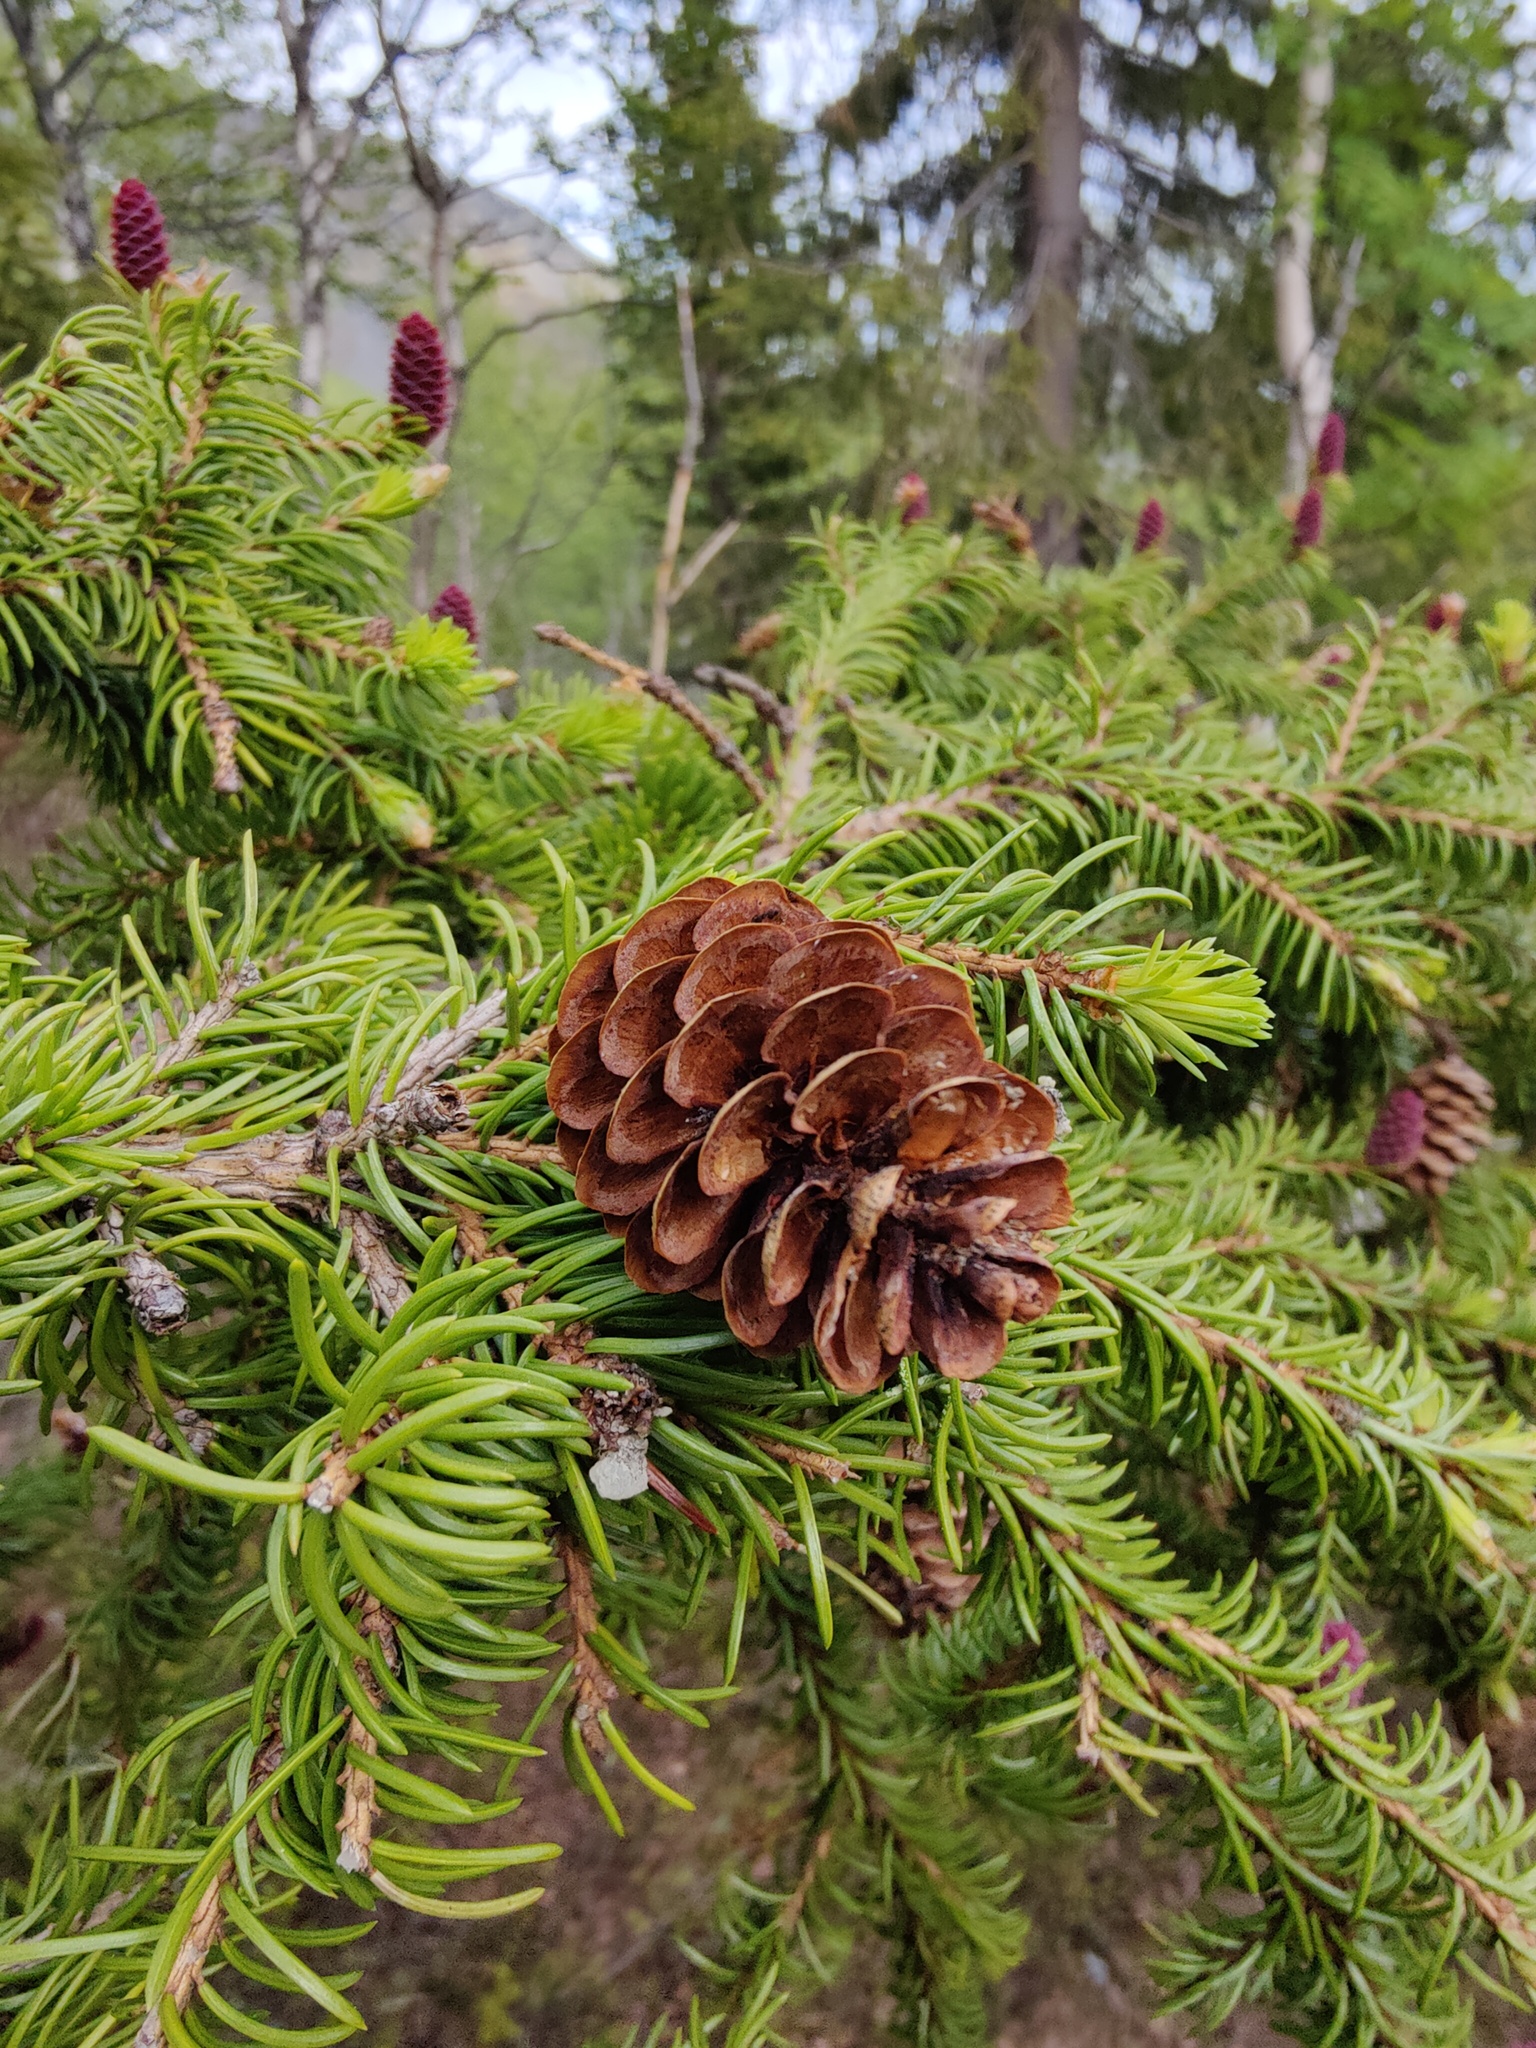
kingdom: Plantae
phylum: Tracheophyta
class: Pinopsida
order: Pinales
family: Pinaceae
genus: Picea
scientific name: Picea fennica
